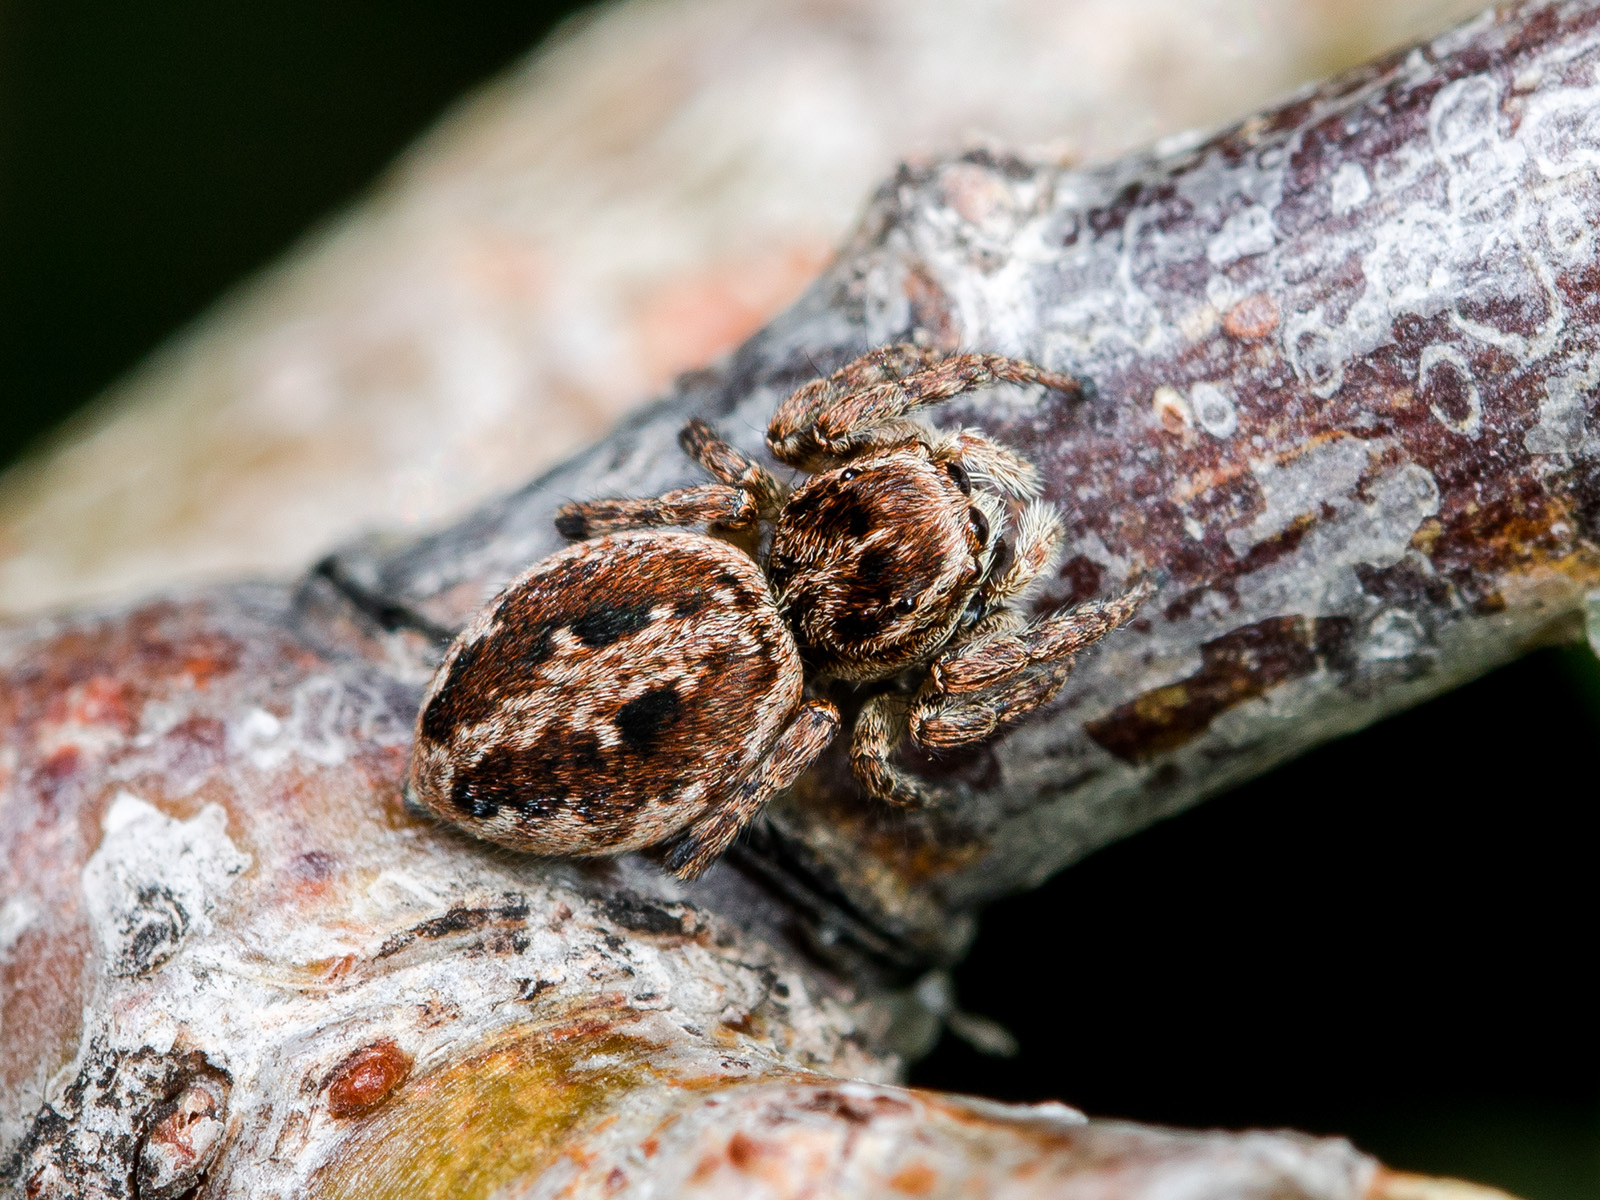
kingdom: Animalia
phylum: Arthropoda
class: Arachnida
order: Araneae
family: Salticidae
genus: Attulus
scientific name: Attulus talgarensis
